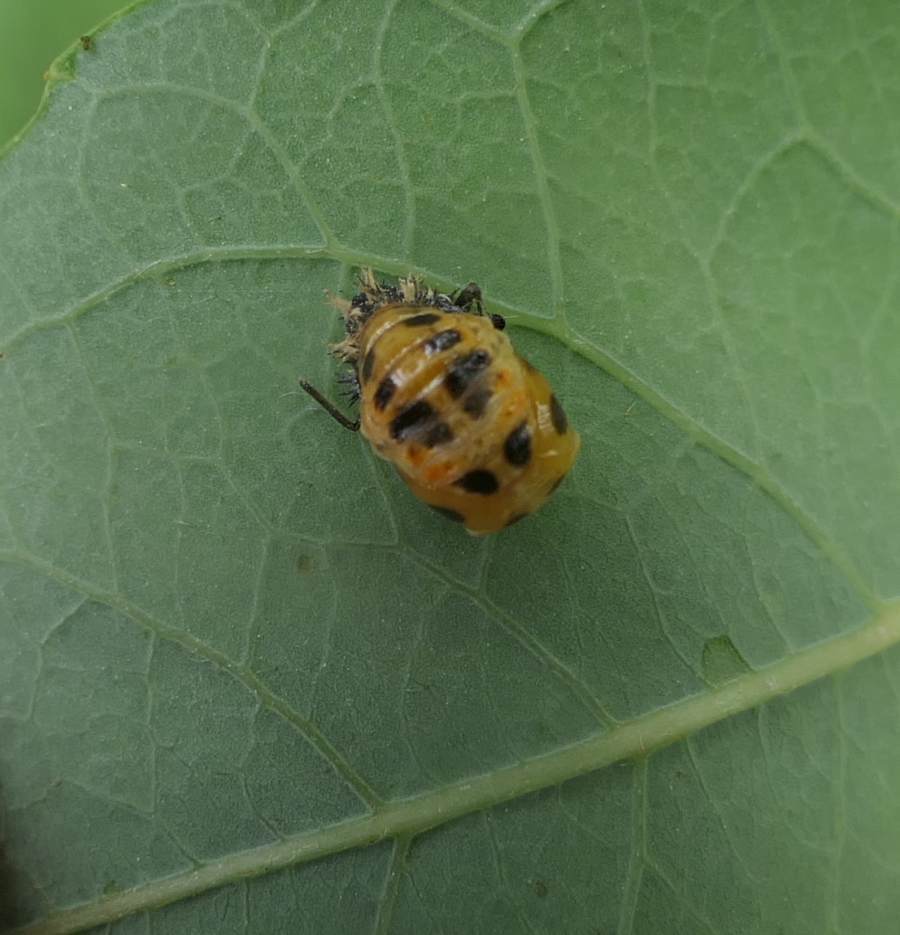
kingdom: Animalia
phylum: Arthropoda
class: Insecta
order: Coleoptera
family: Coccinellidae
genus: Harmonia
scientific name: Harmonia axyridis
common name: Harlequin ladybird
